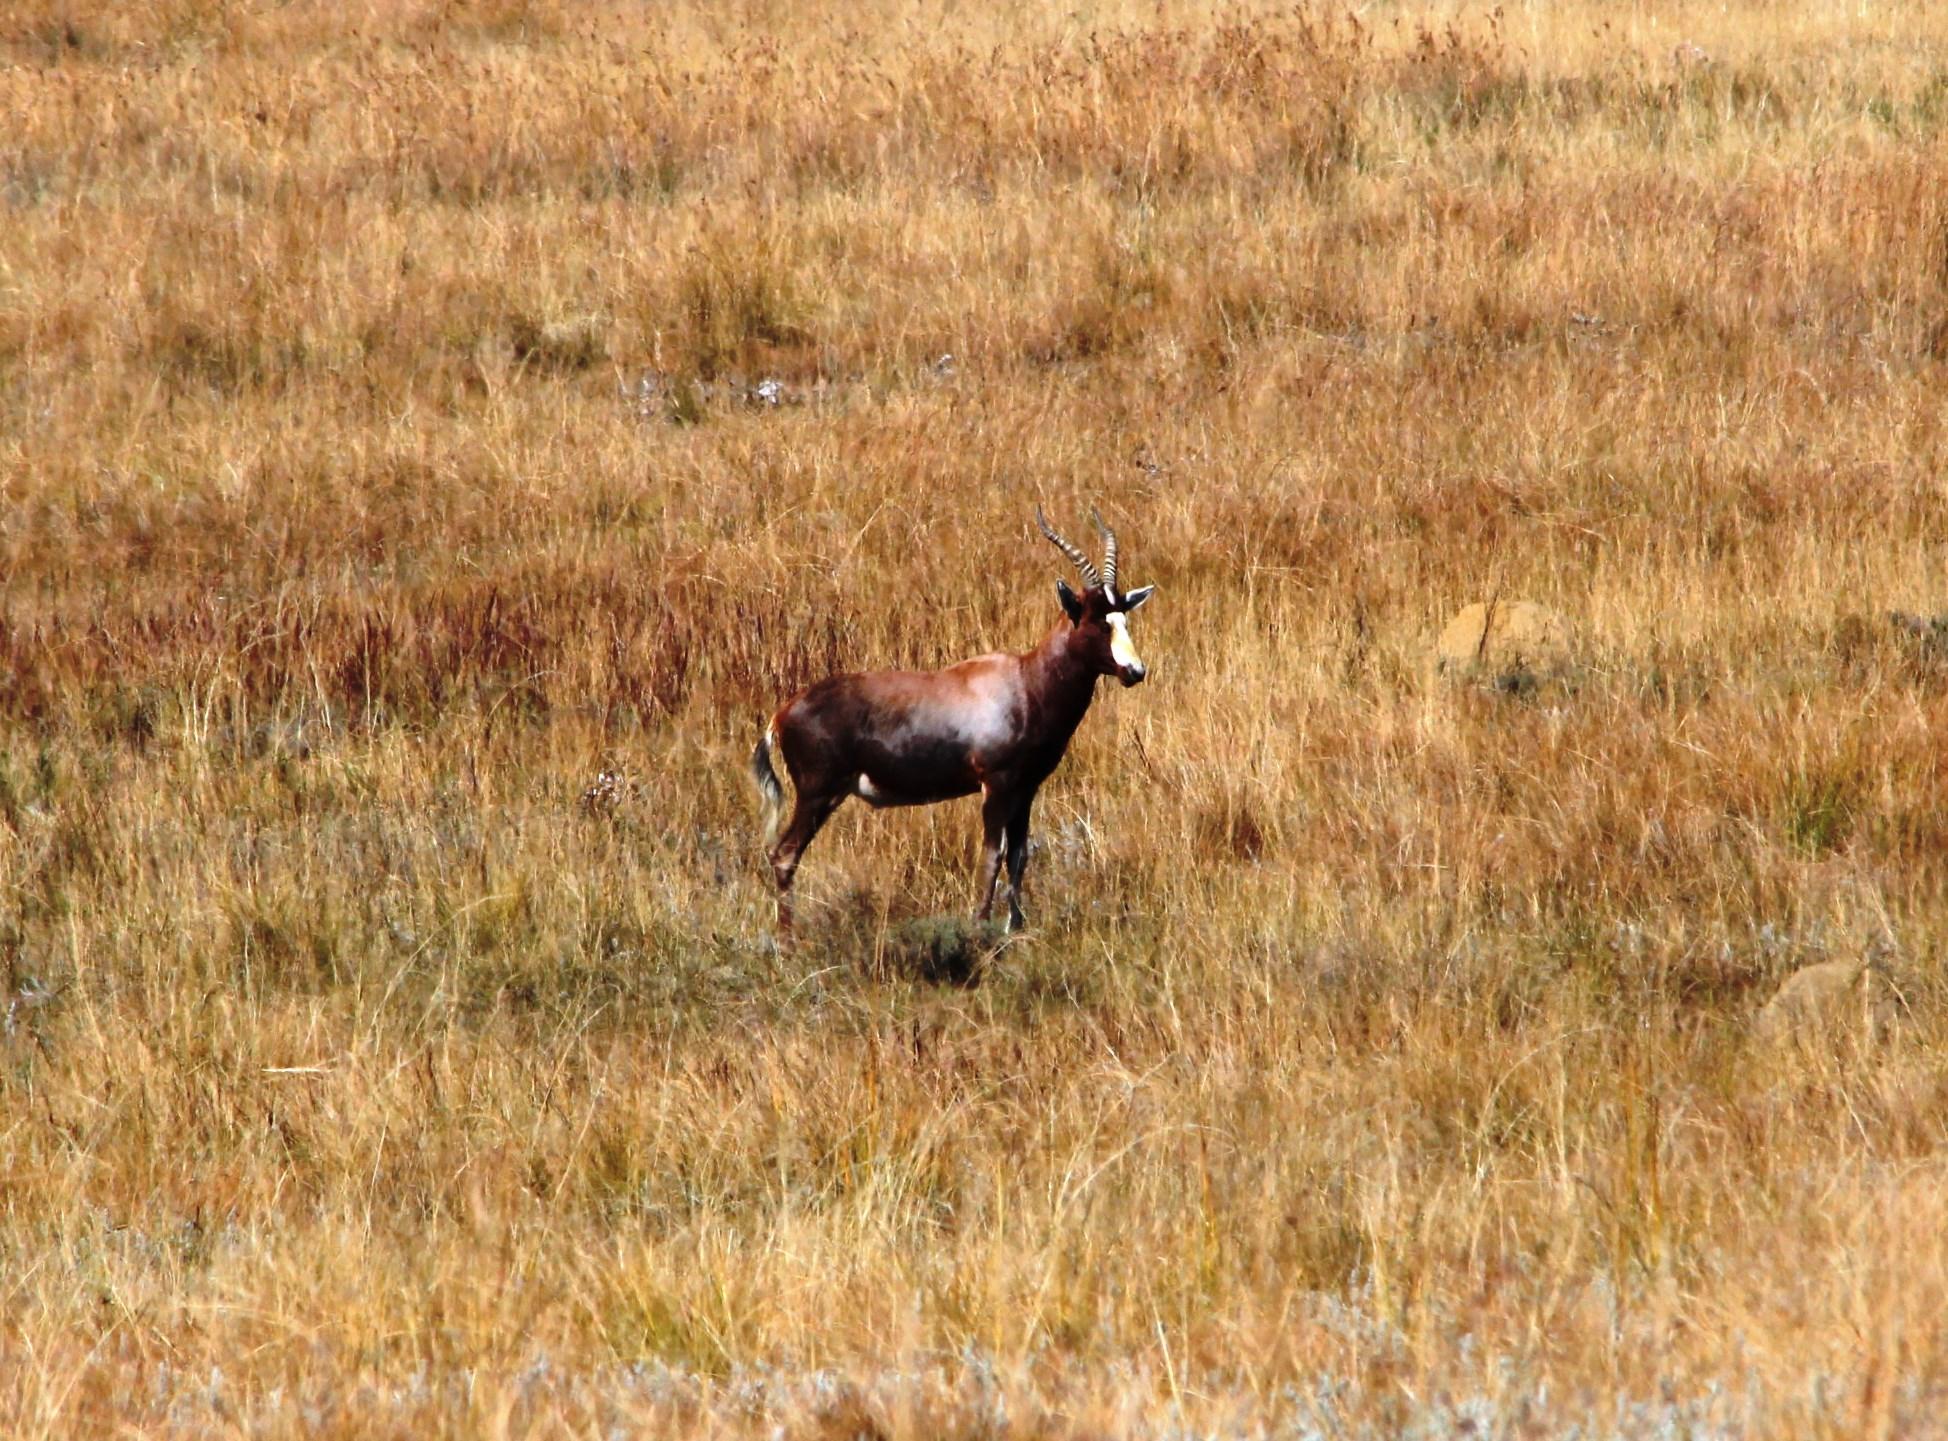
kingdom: Animalia
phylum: Chordata
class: Mammalia
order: Artiodactyla
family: Bovidae
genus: Damaliscus
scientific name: Damaliscus pygargus
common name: Bontebok
